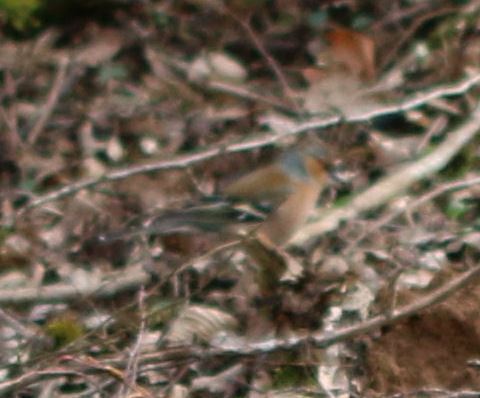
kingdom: Animalia
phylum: Chordata
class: Aves
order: Passeriformes
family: Fringillidae
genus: Fringilla
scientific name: Fringilla coelebs
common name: Common chaffinch
